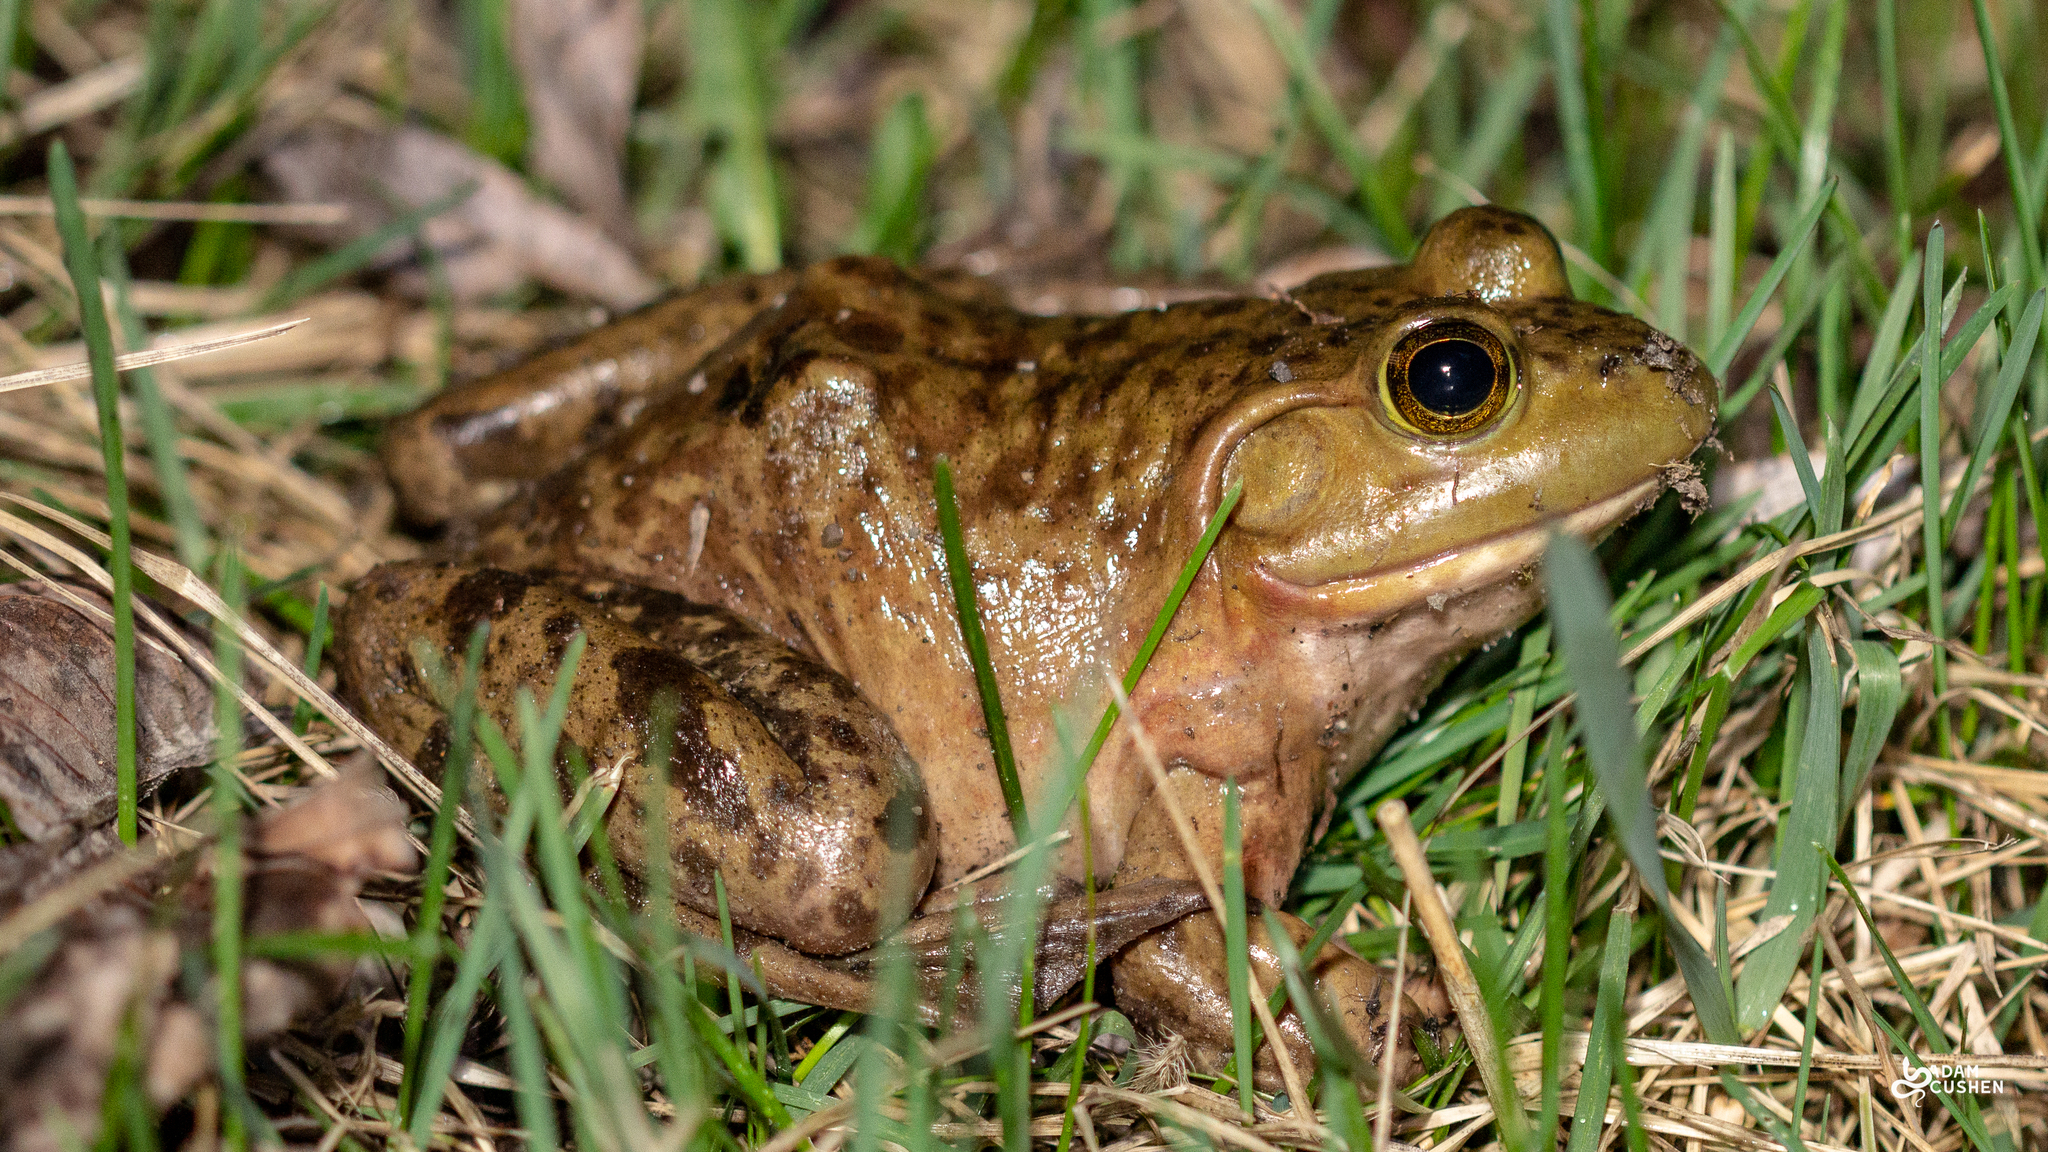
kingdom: Animalia
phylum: Chordata
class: Amphibia
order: Anura
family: Ranidae
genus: Lithobates
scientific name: Lithobates catesbeianus
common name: American bullfrog
